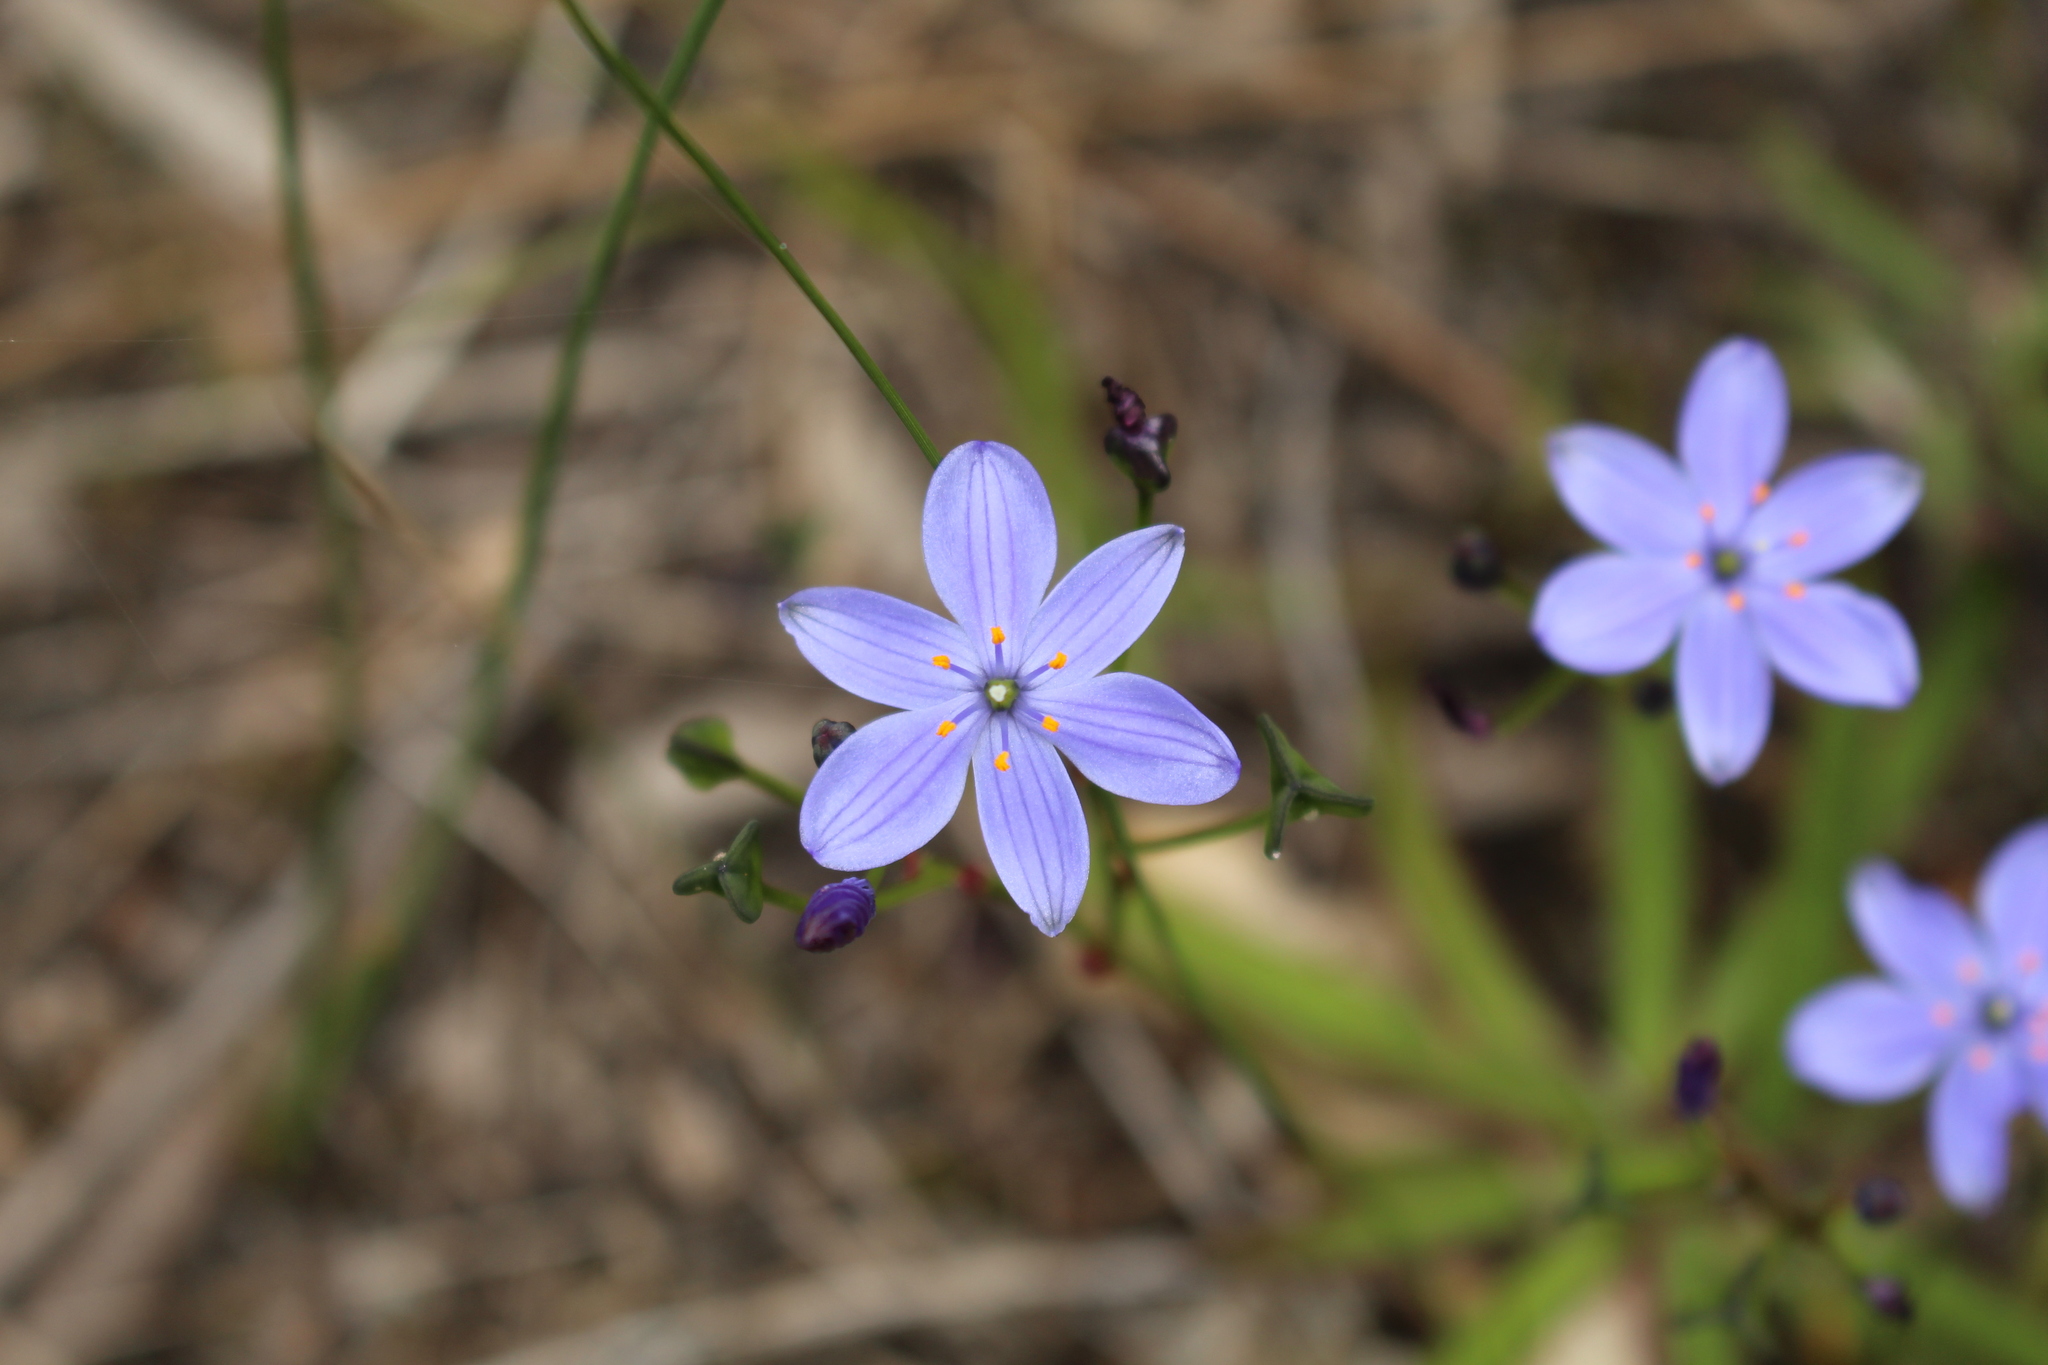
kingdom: Plantae
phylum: Tracheophyta
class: Liliopsida
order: Asparagales
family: Asphodelaceae
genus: Chamaescilla
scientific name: Chamaescilla corymbosa
